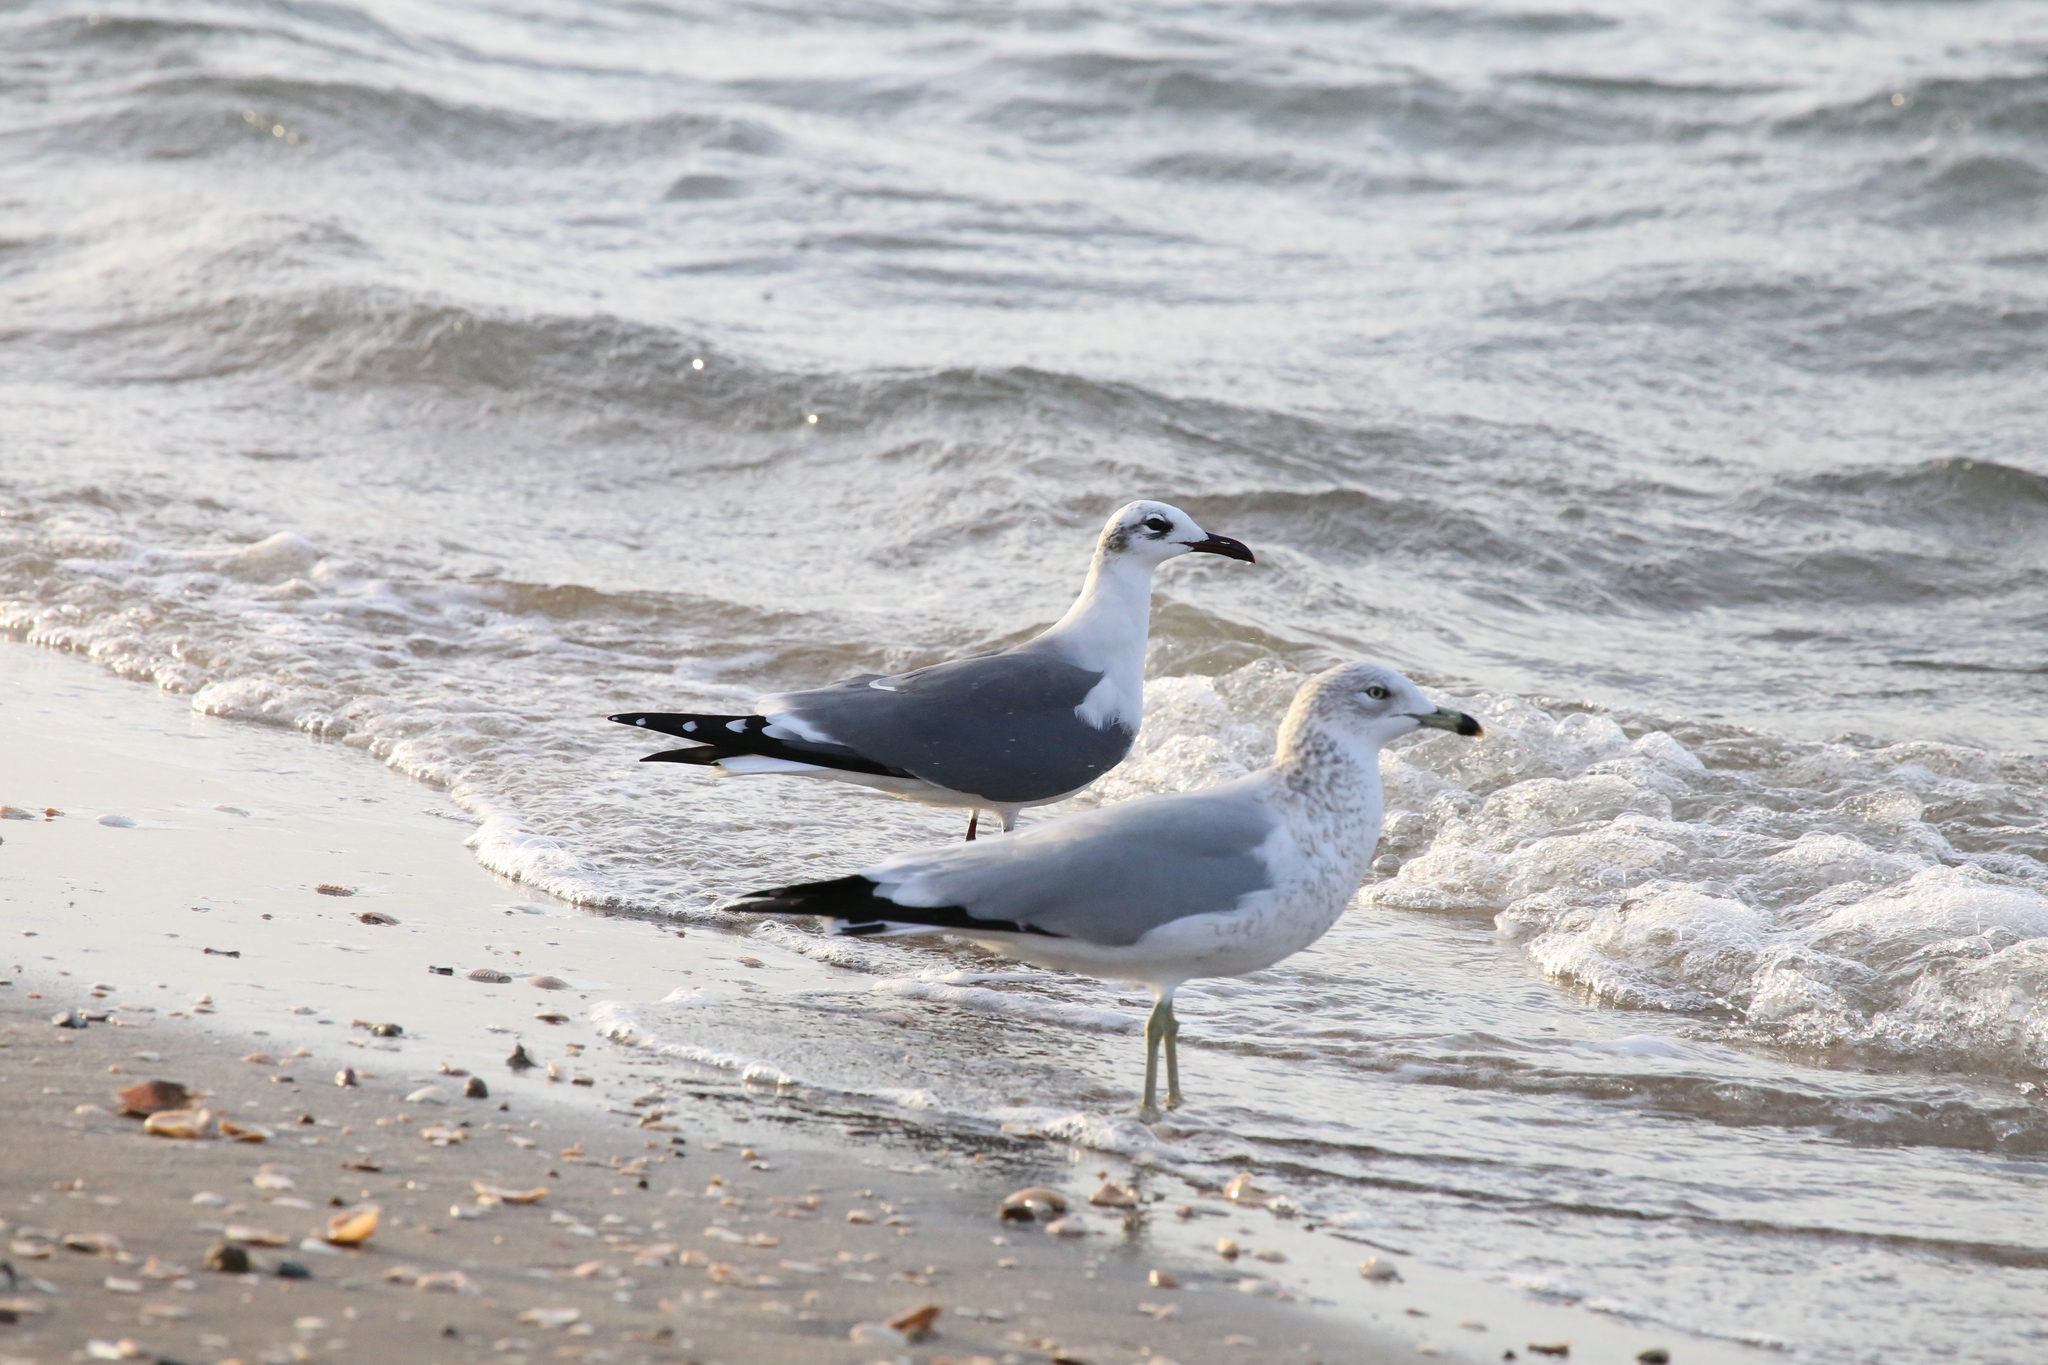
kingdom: Animalia
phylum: Chordata
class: Aves
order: Charadriiformes
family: Laridae
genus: Larus
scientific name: Larus delawarensis
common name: Ring-billed gull
